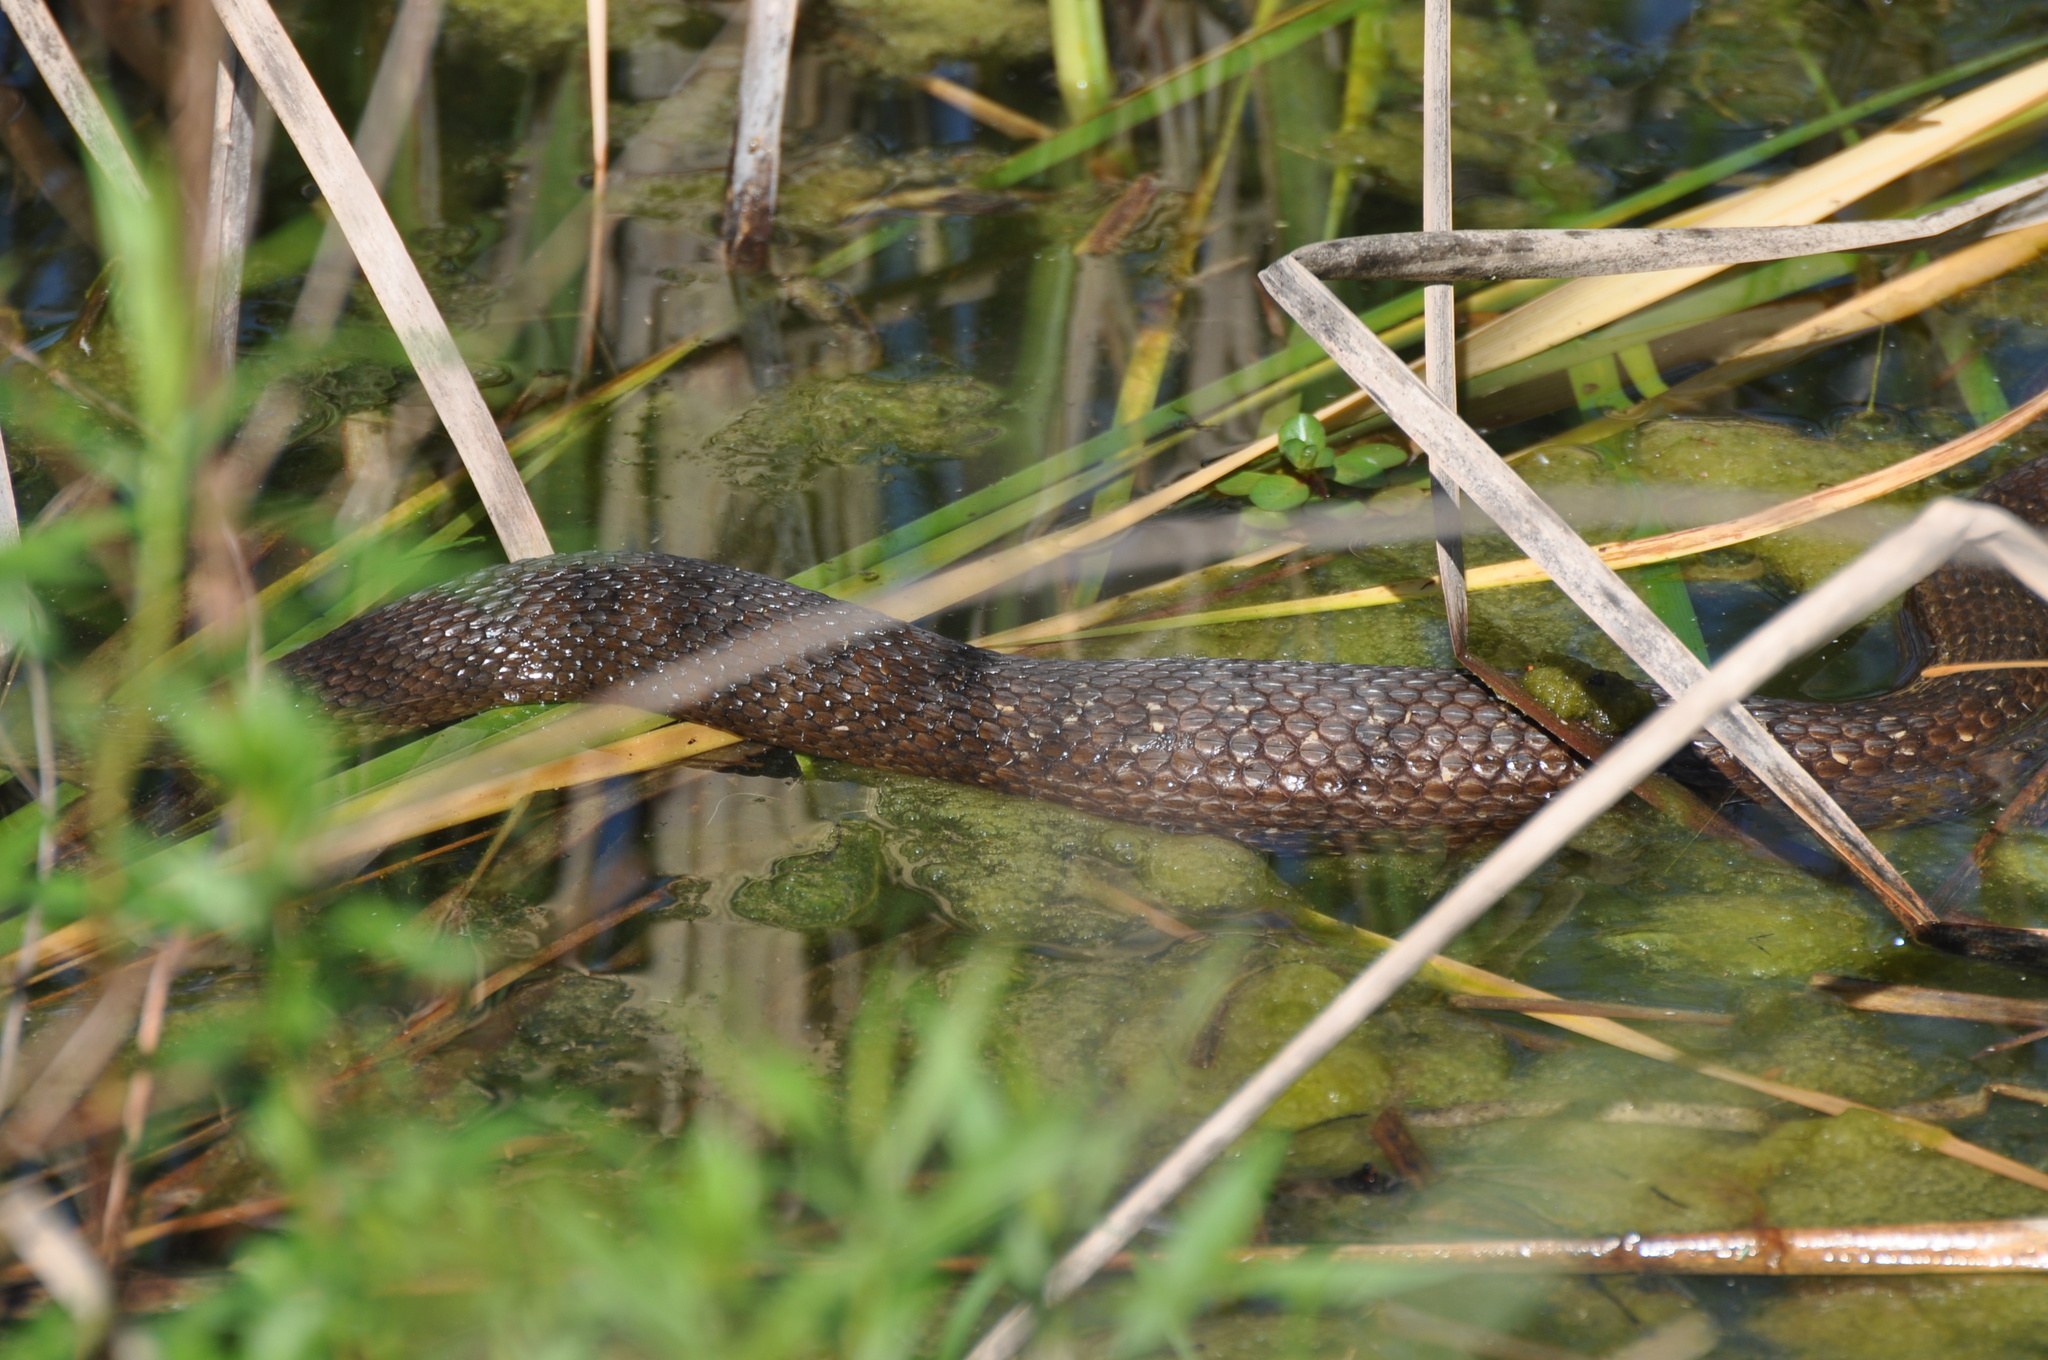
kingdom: Animalia
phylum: Chordata
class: Squamata
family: Colubridae
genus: Nerodia
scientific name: Nerodia erythrogaster
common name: Plainbelly water snake
